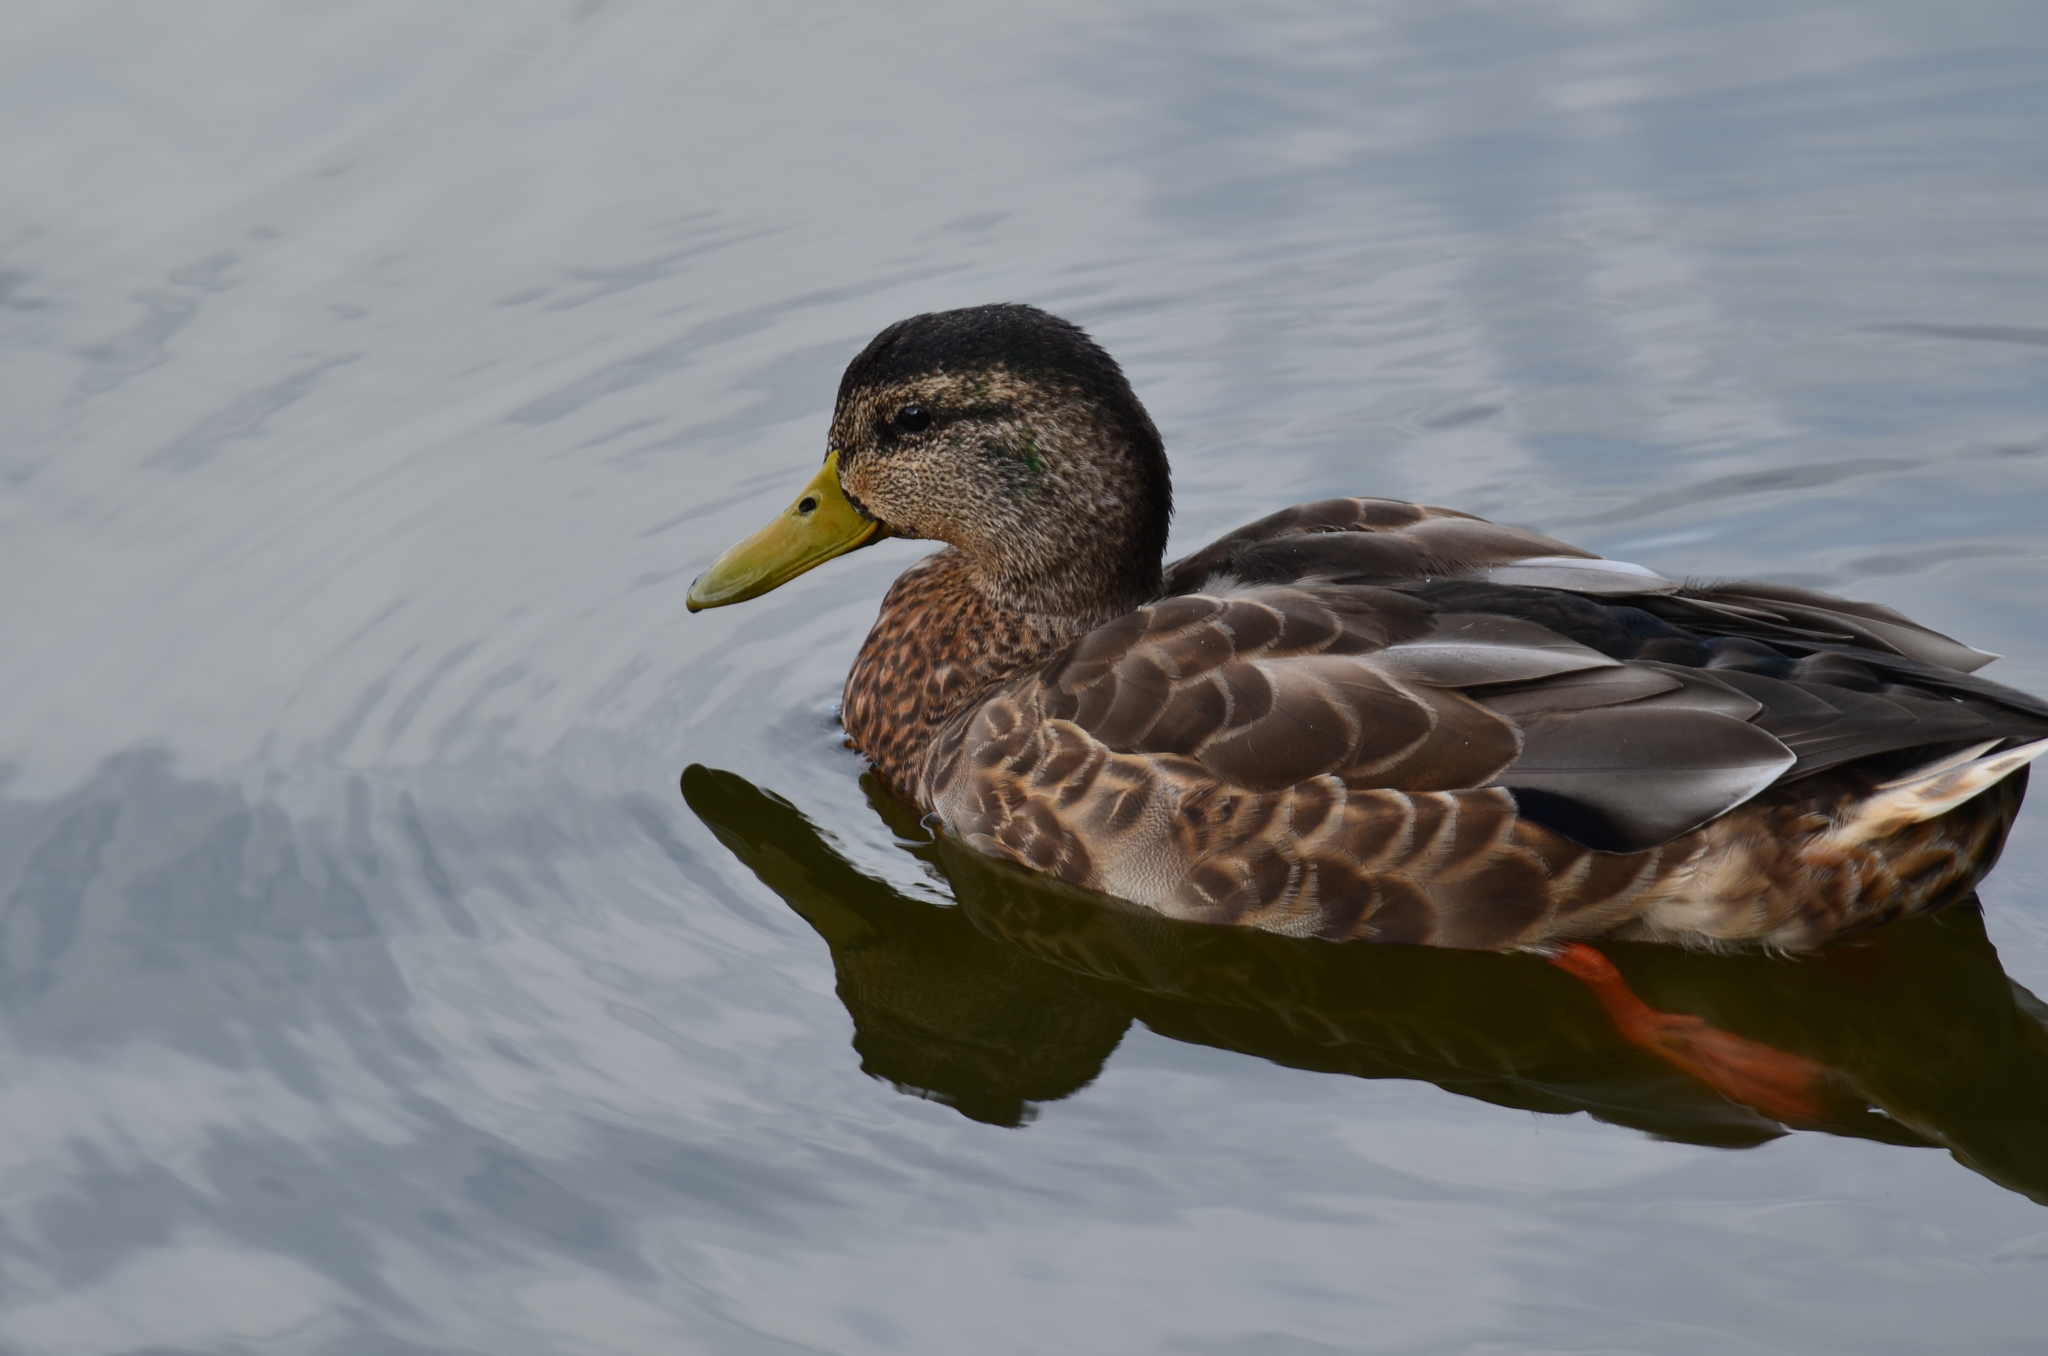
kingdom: Animalia
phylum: Chordata
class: Aves
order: Anseriformes
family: Anatidae
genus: Anas
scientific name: Anas platyrhynchos
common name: Mallard
